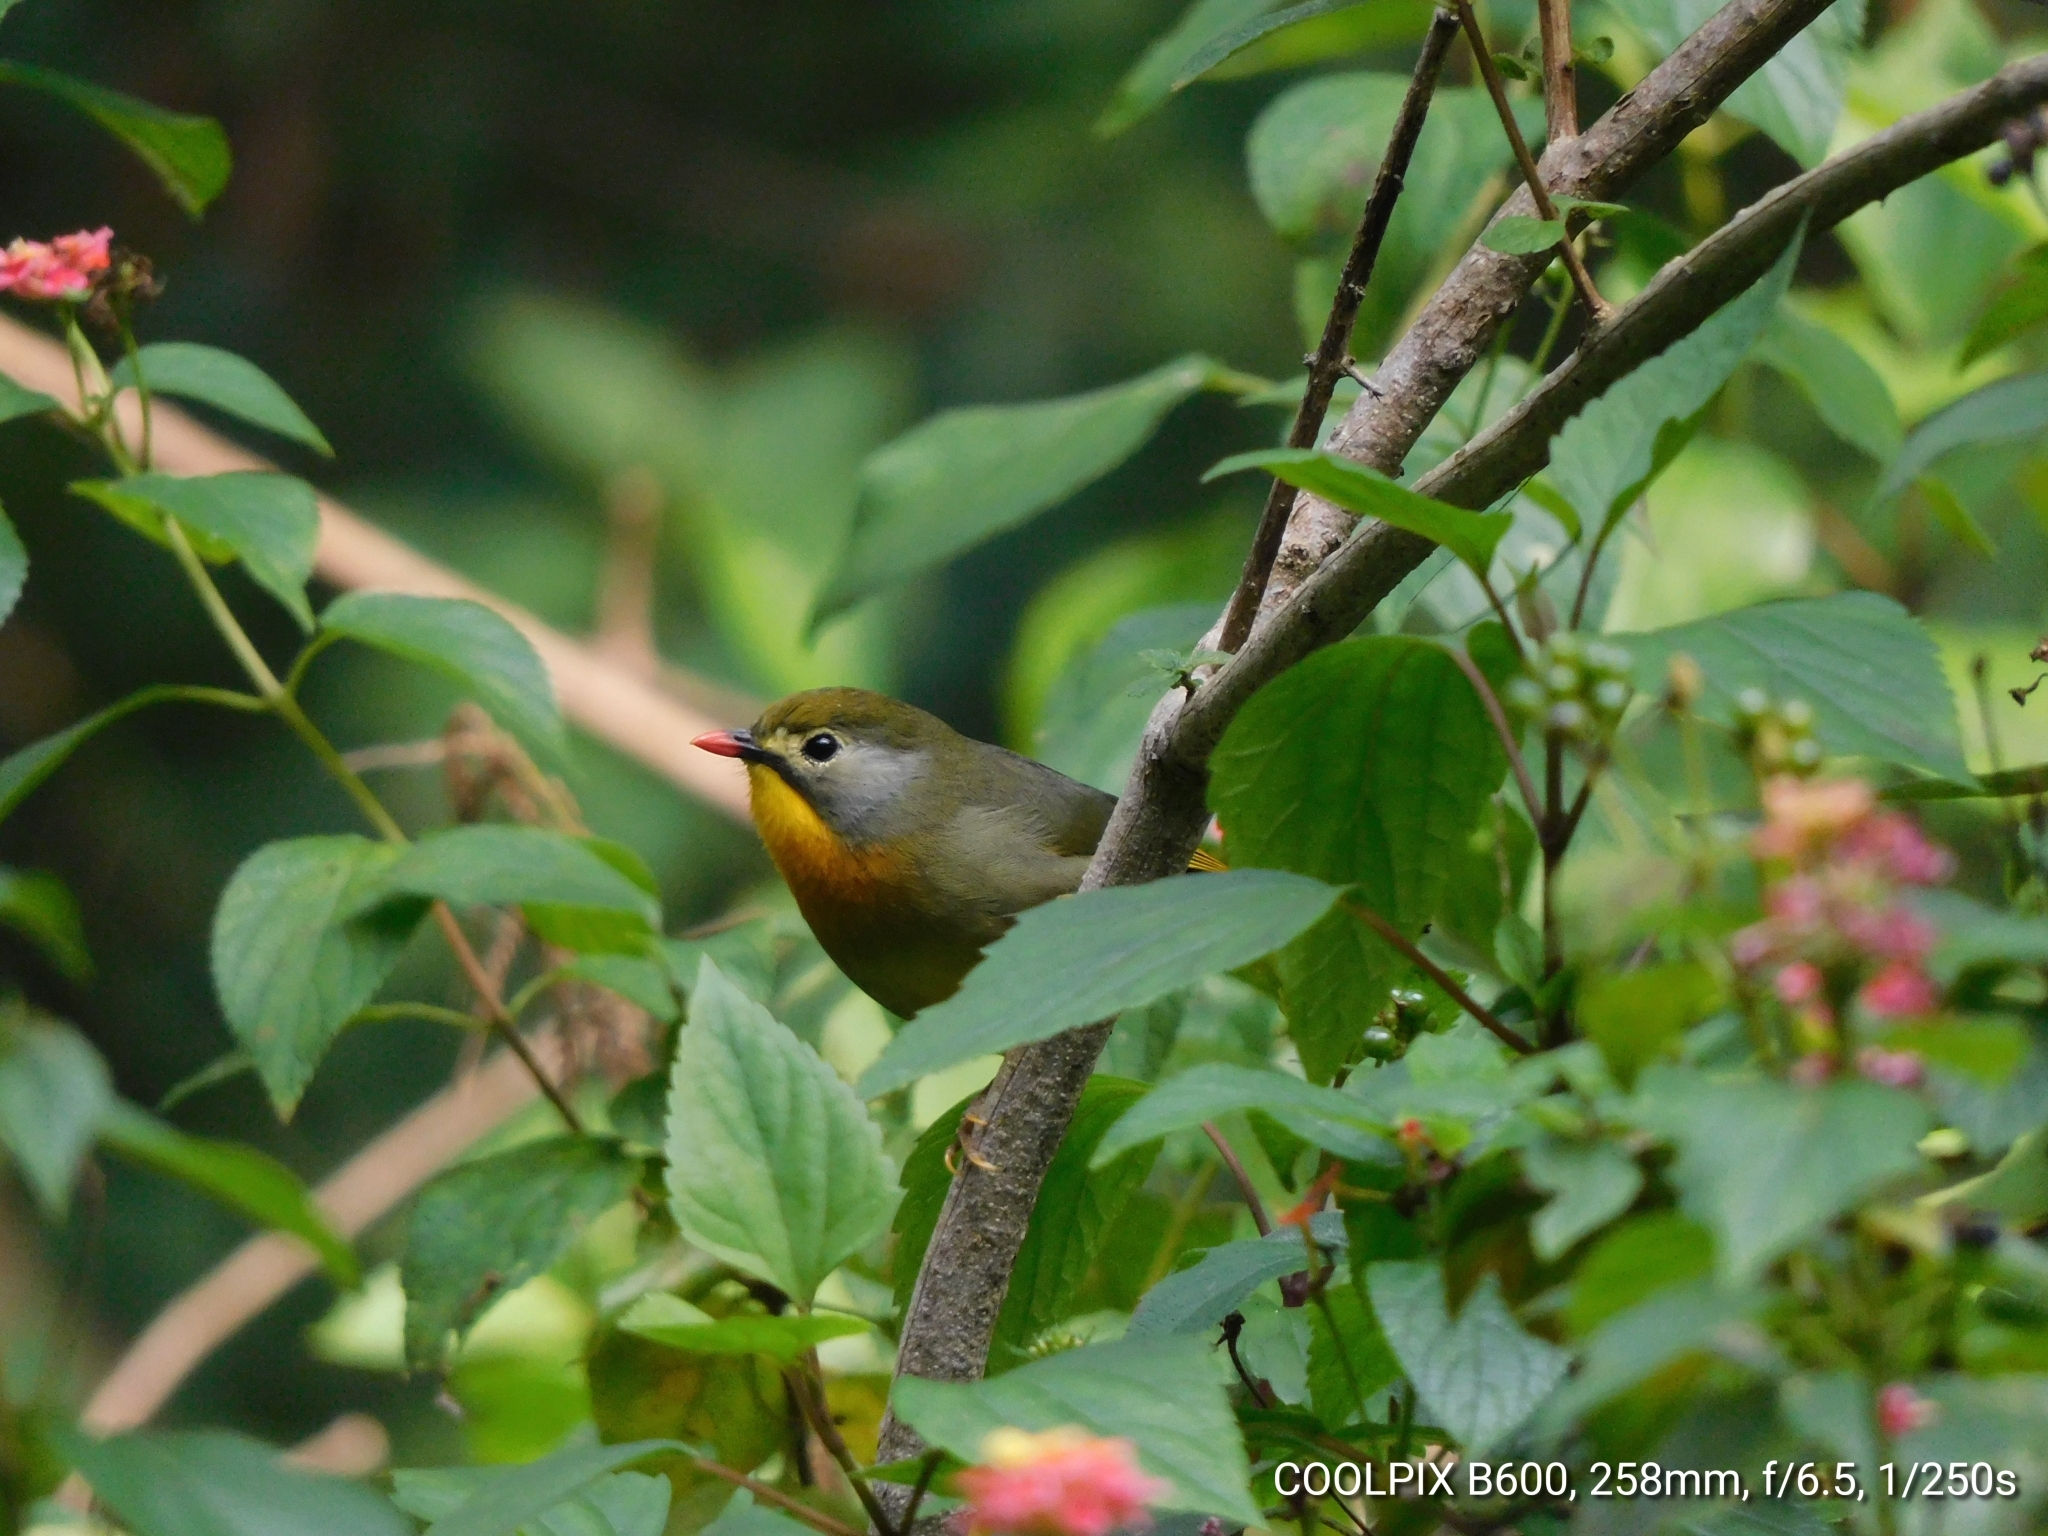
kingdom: Animalia
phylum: Chordata
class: Aves
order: Passeriformes
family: Leiothrichidae
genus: Leiothrix
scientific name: Leiothrix lutea
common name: Red-billed leiothrix
